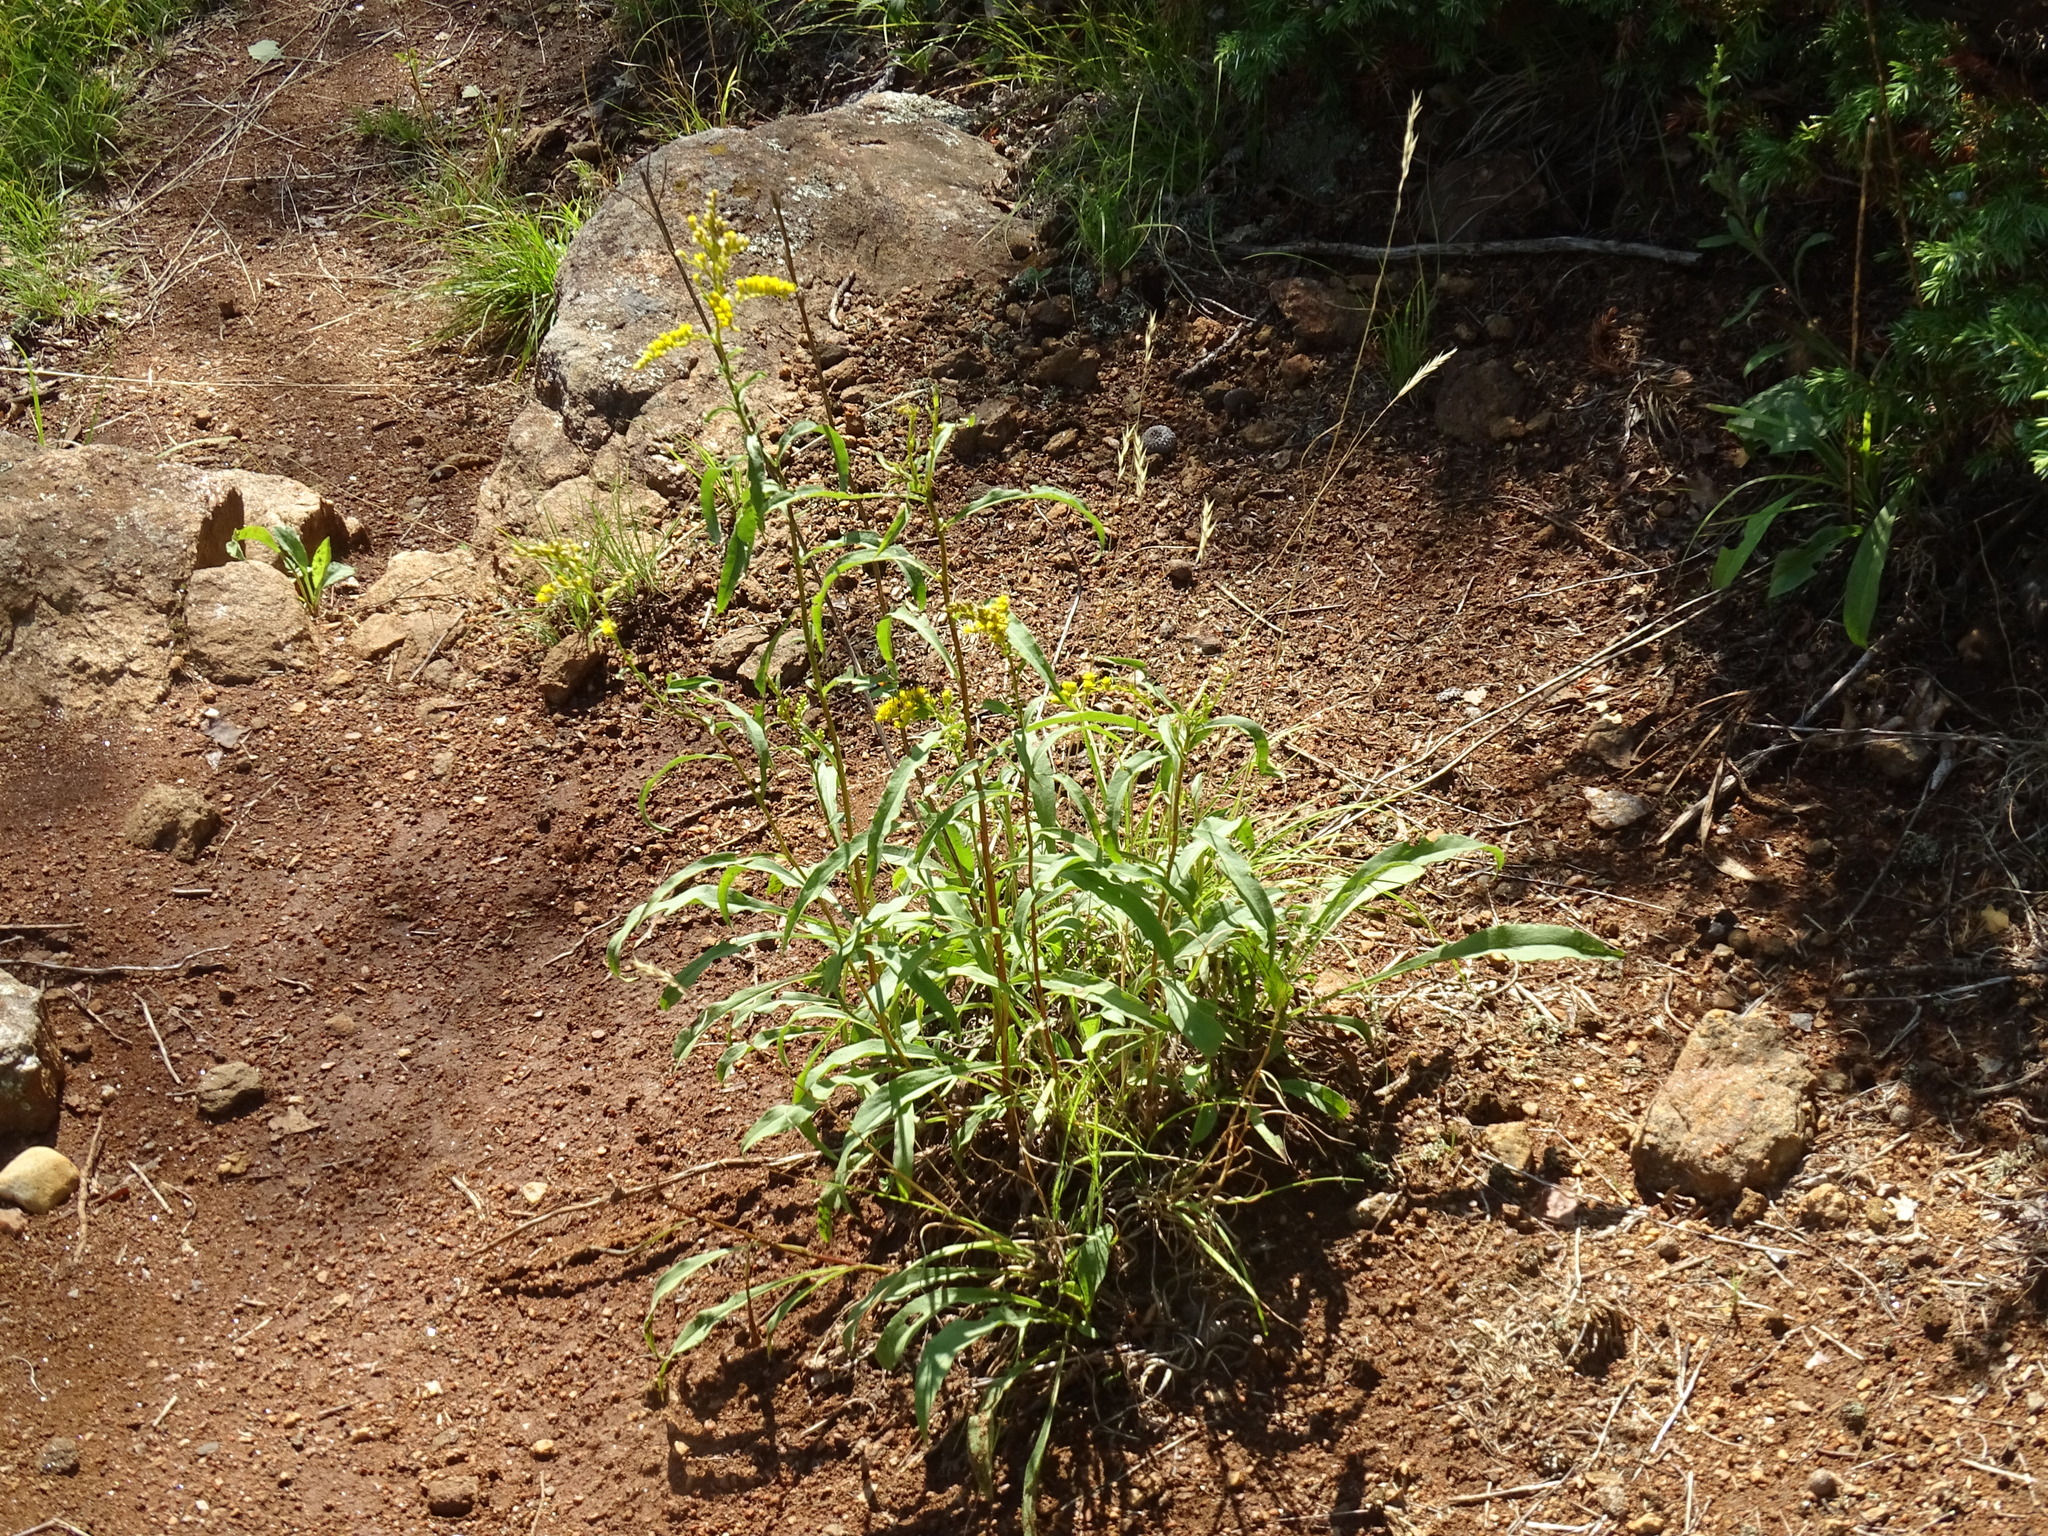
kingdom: Plantae
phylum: Tracheophyta
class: Magnoliopsida
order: Asterales
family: Asteraceae
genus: Solidago
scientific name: Solidago juncea
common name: Early goldenrod
